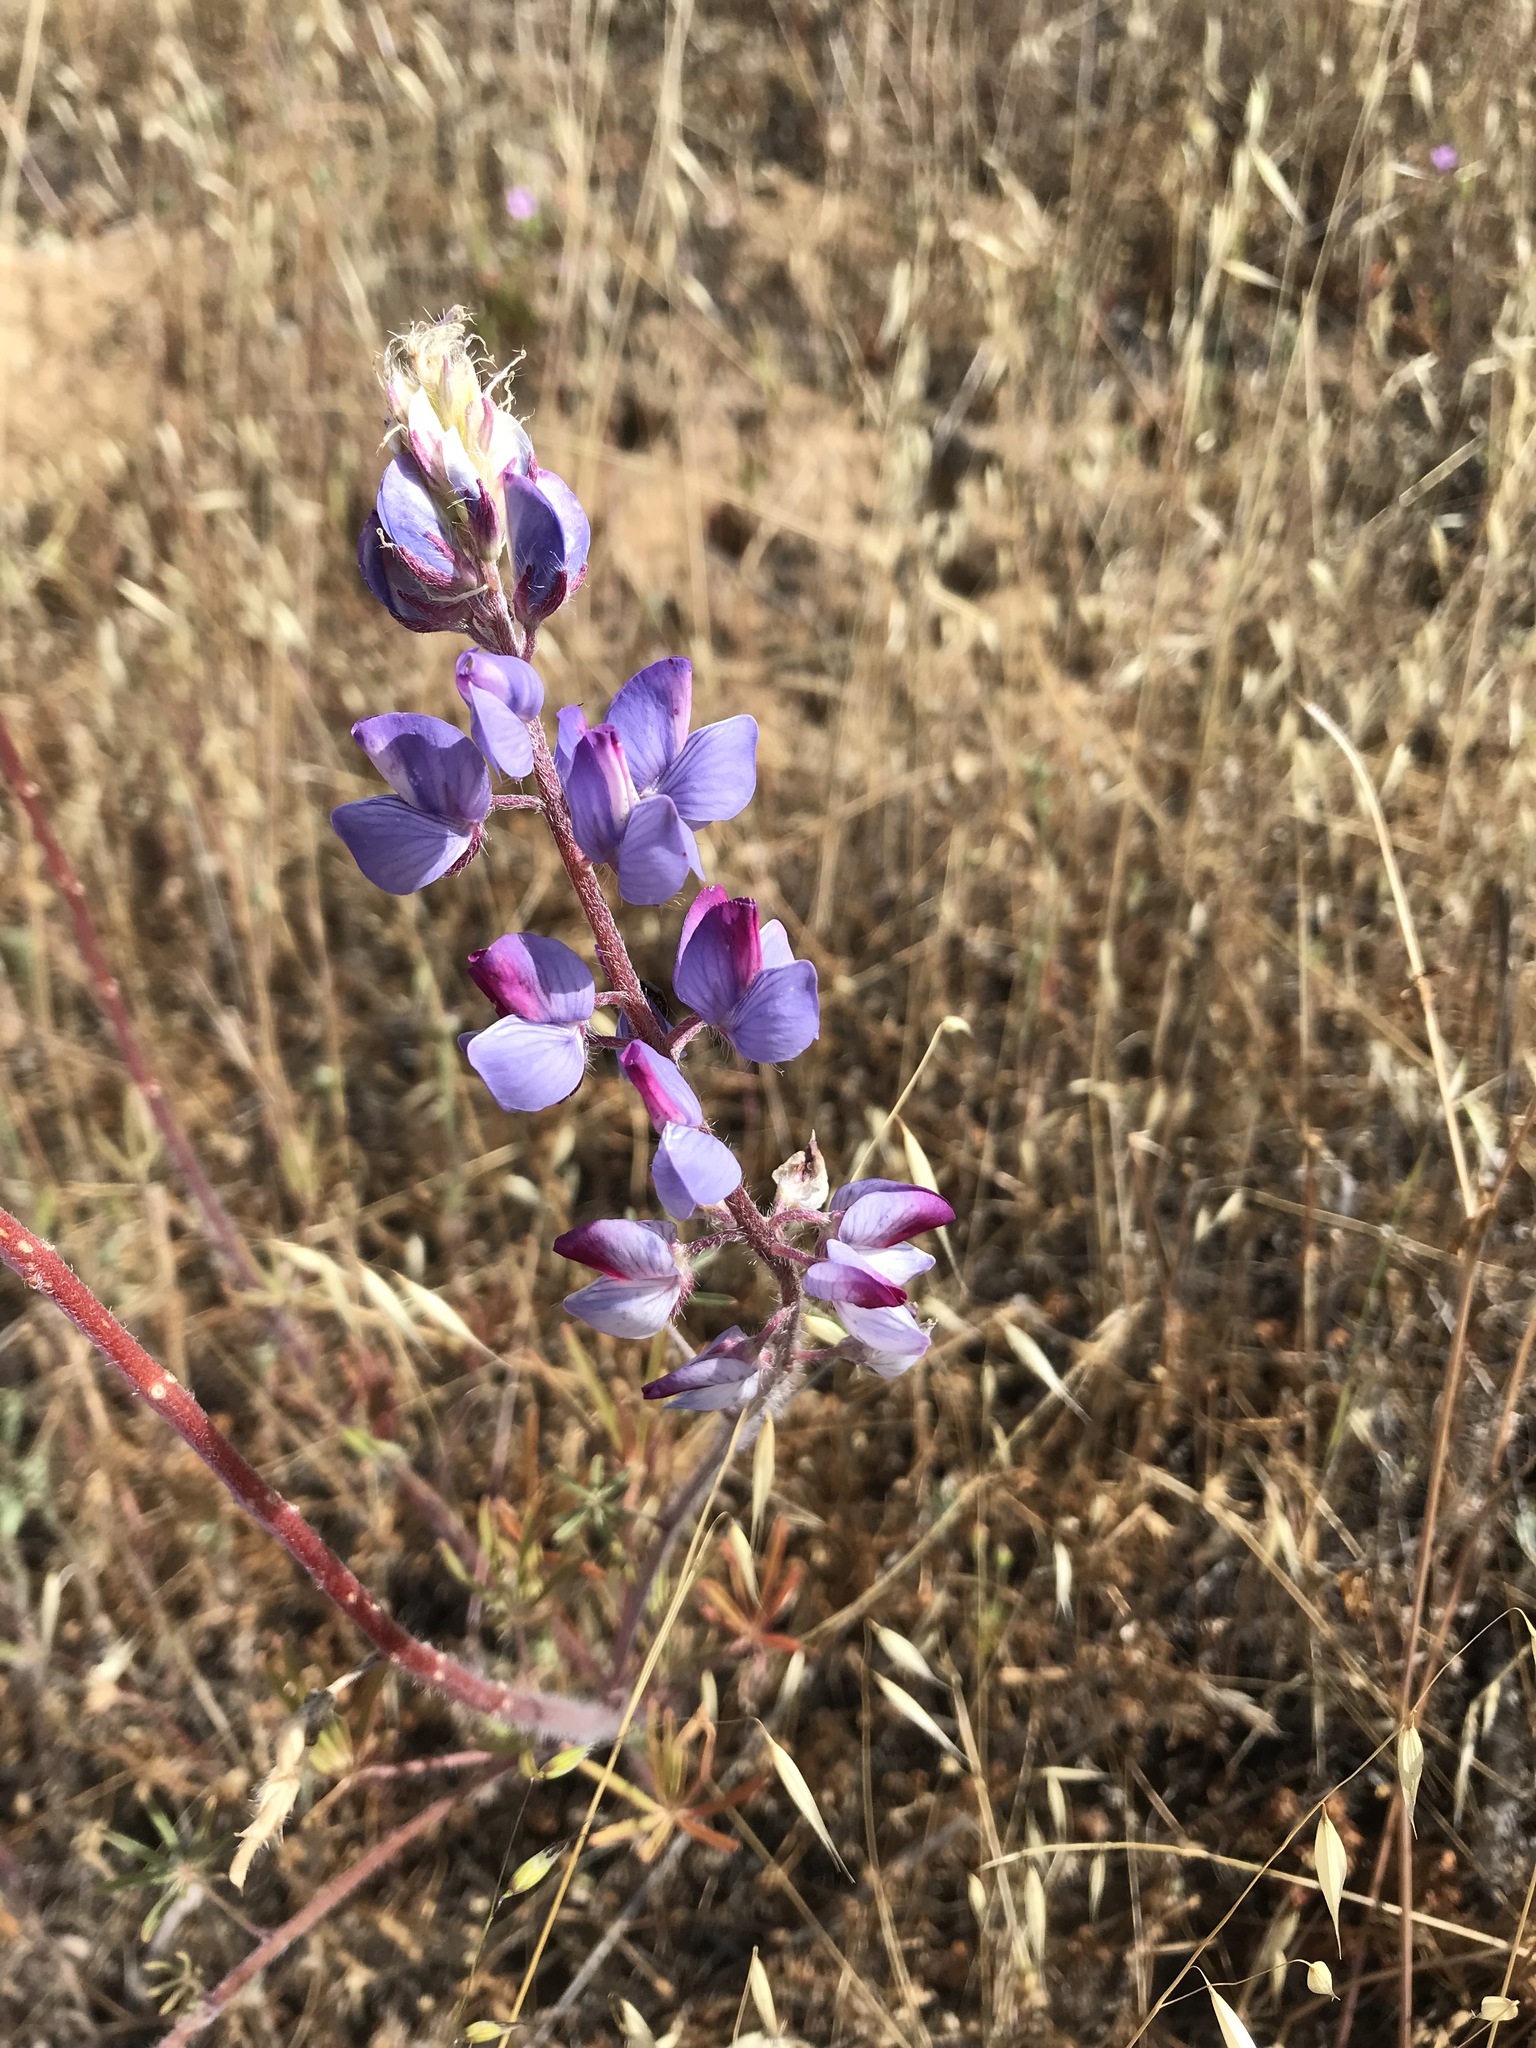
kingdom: Plantae
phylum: Tracheophyta
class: Magnoliopsida
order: Fabales
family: Fabaceae
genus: Lupinus
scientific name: Lupinus benthamii
